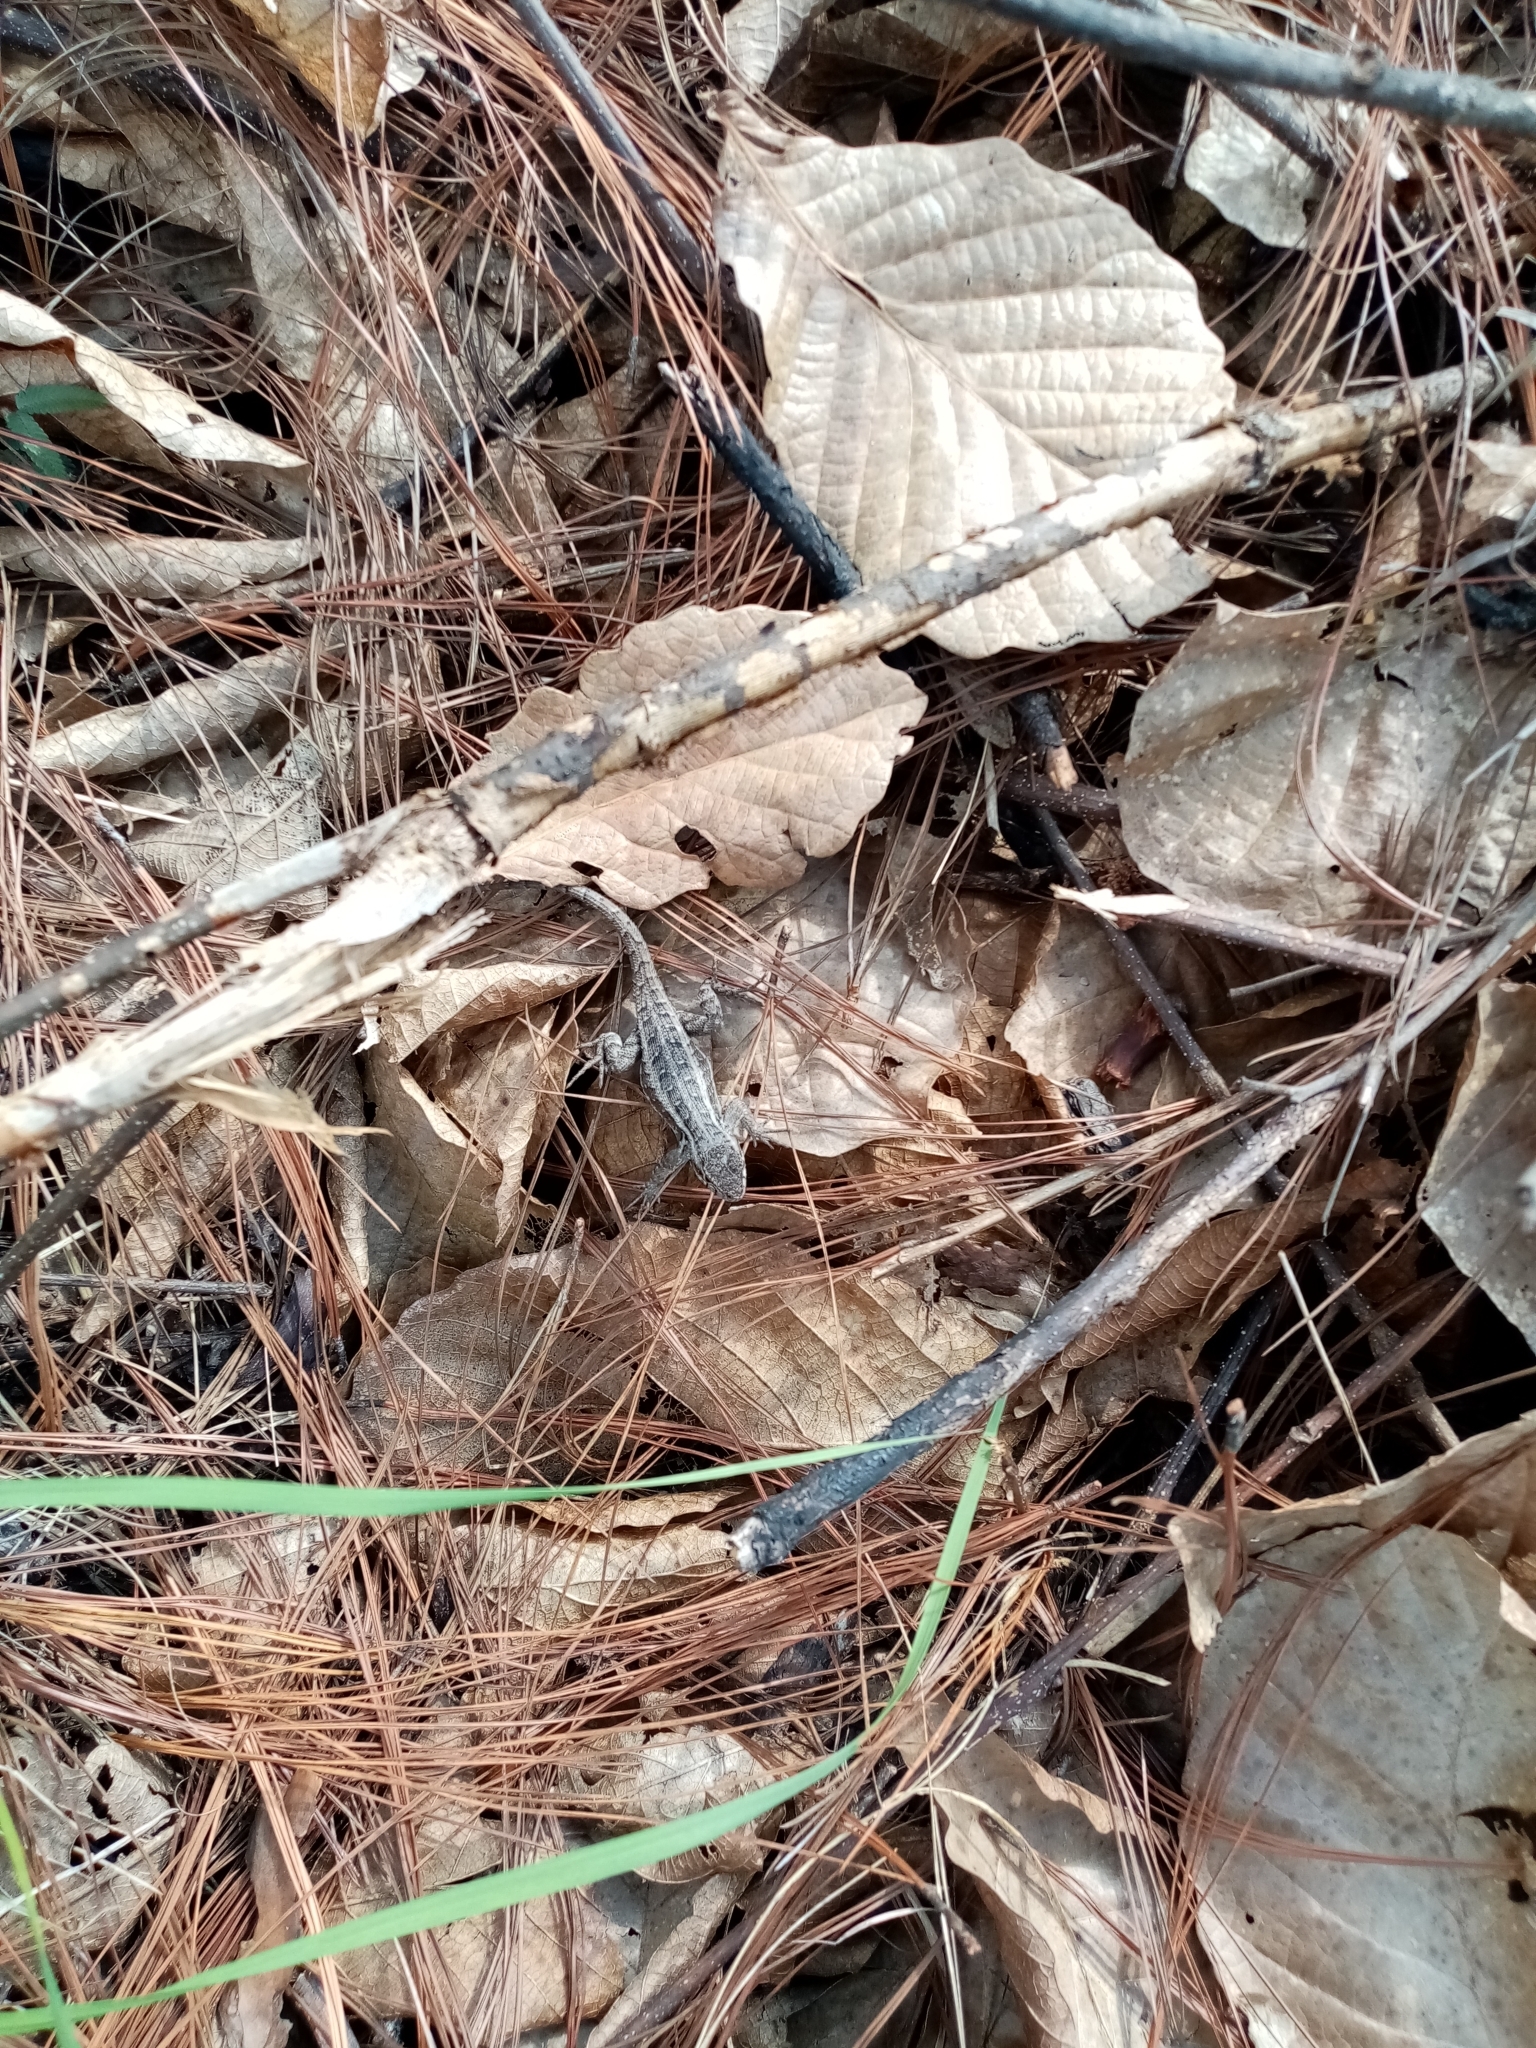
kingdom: Animalia
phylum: Chordata
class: Squamata
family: Phrynosomatidae
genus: Sceloporus
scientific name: Sceloporus variabilis
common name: Rosebelly lizard
